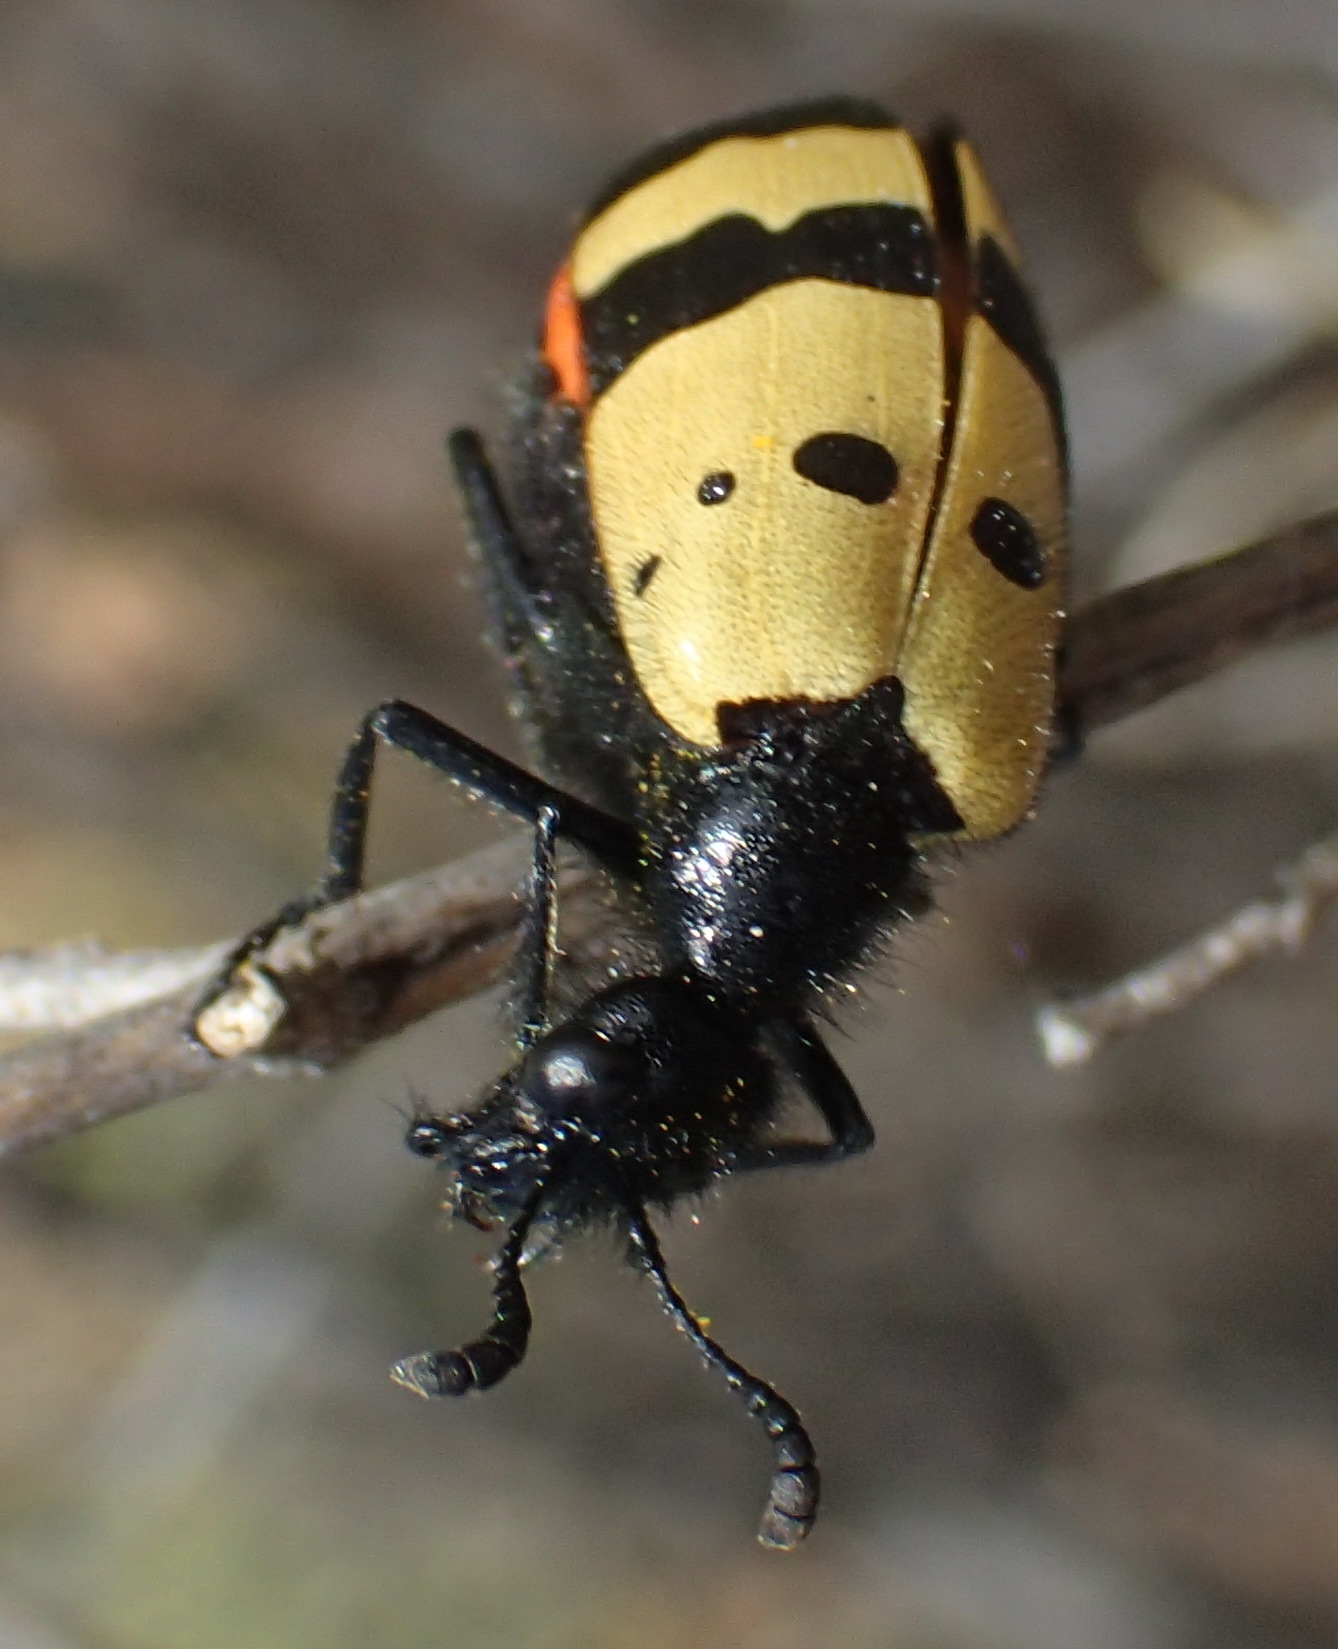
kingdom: Animalia
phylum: Arthropoda
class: Insecta
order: Coleoptera
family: Meloidae
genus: Meloe
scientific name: Meloe tripunctatus
